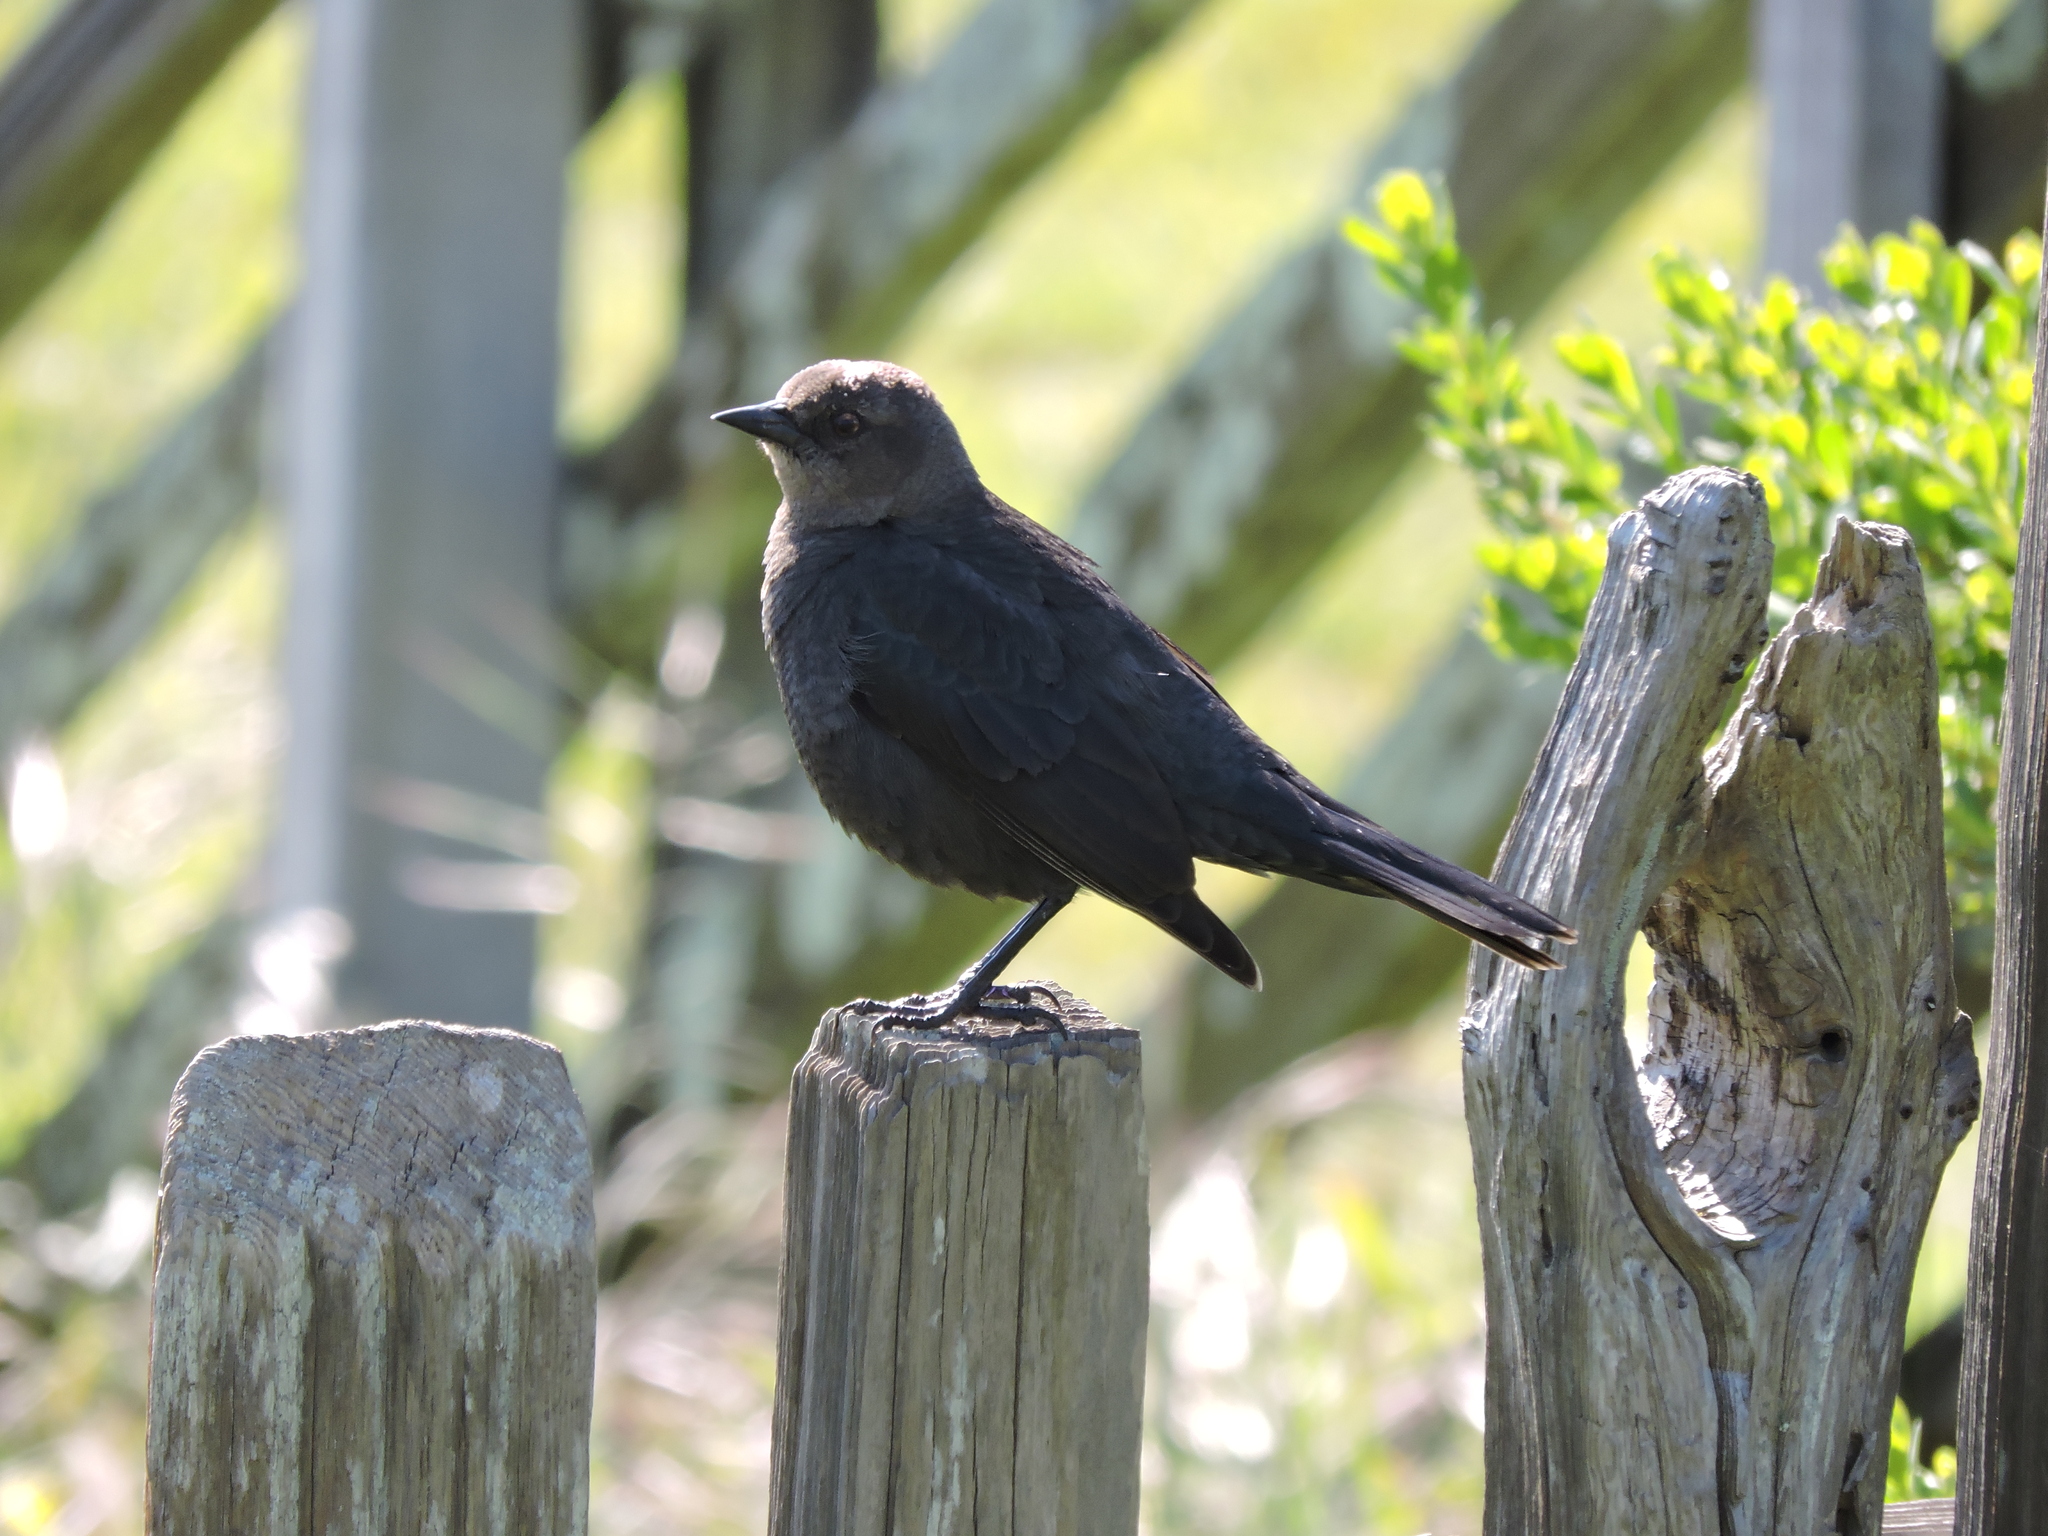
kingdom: Animalia
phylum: Chordata
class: Aves
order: Passeriformes
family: Icteridae
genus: Euphagus
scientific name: Euphagus cyanocephalus
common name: Brewer's blackbird
